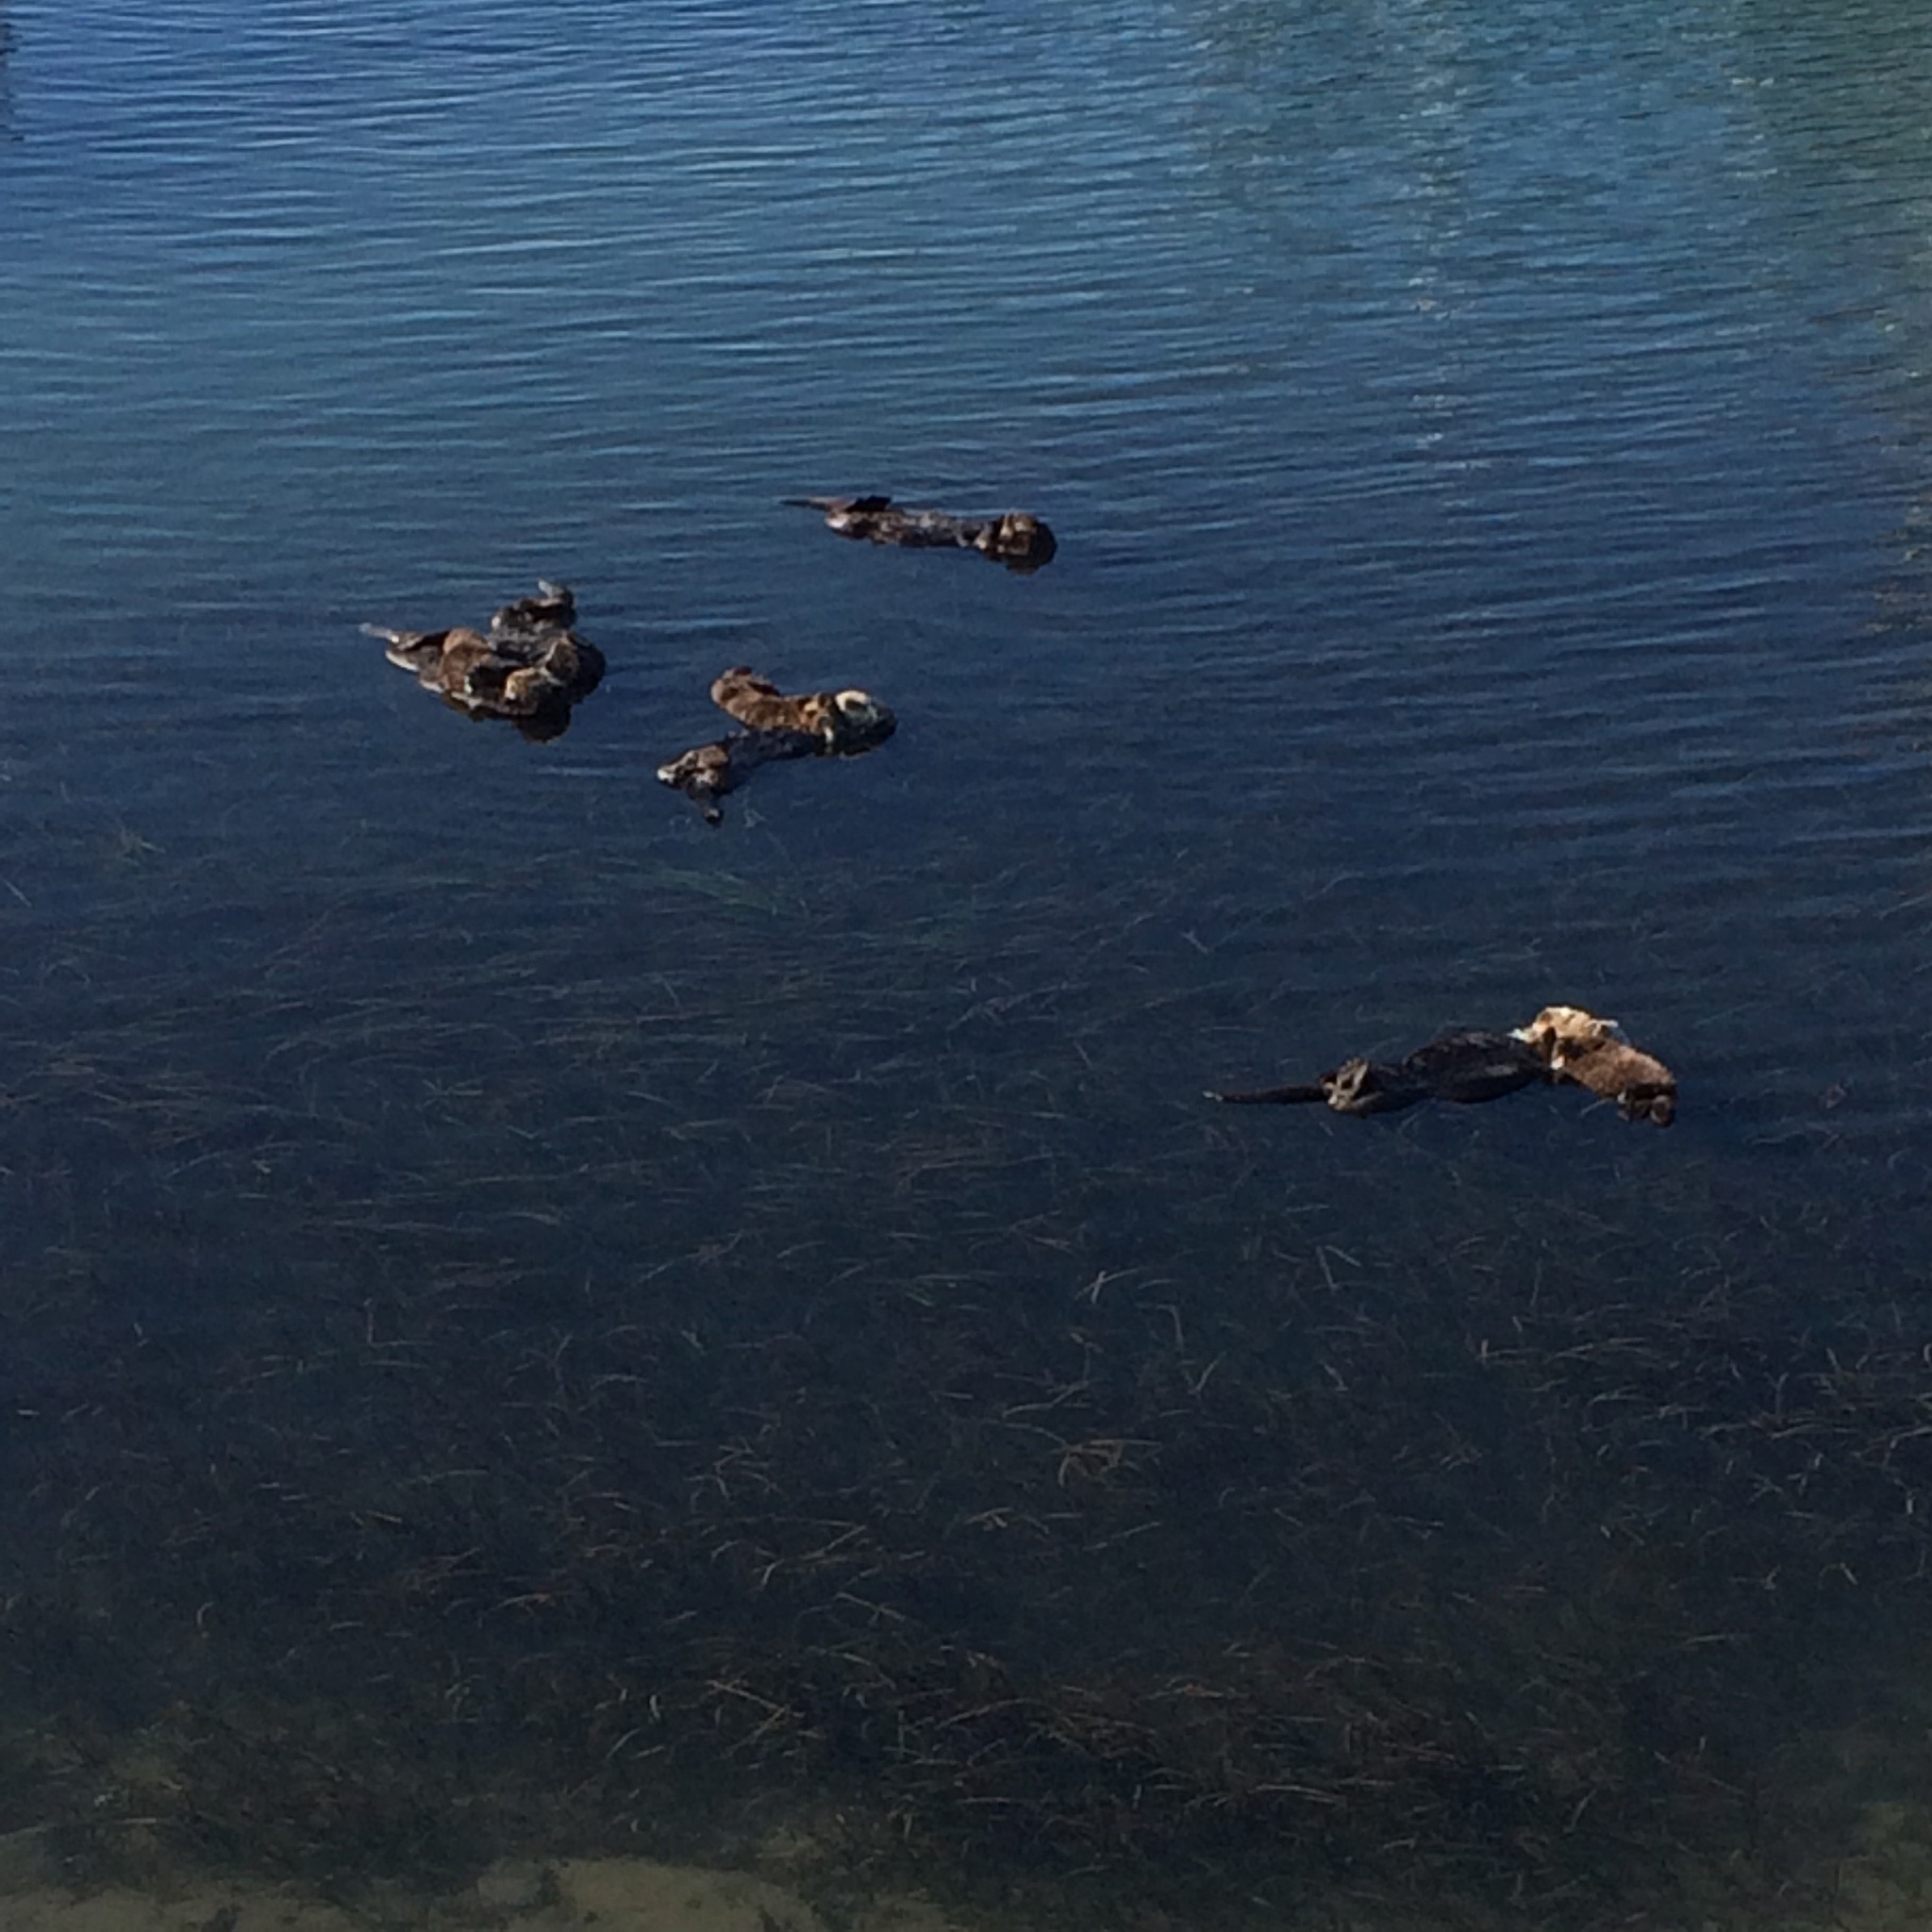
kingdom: Animalia
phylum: Chordata
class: Mammalia
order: Carnivora
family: Mustelidae
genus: Enhydra
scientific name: Enhydra lutris
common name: Sea otter
